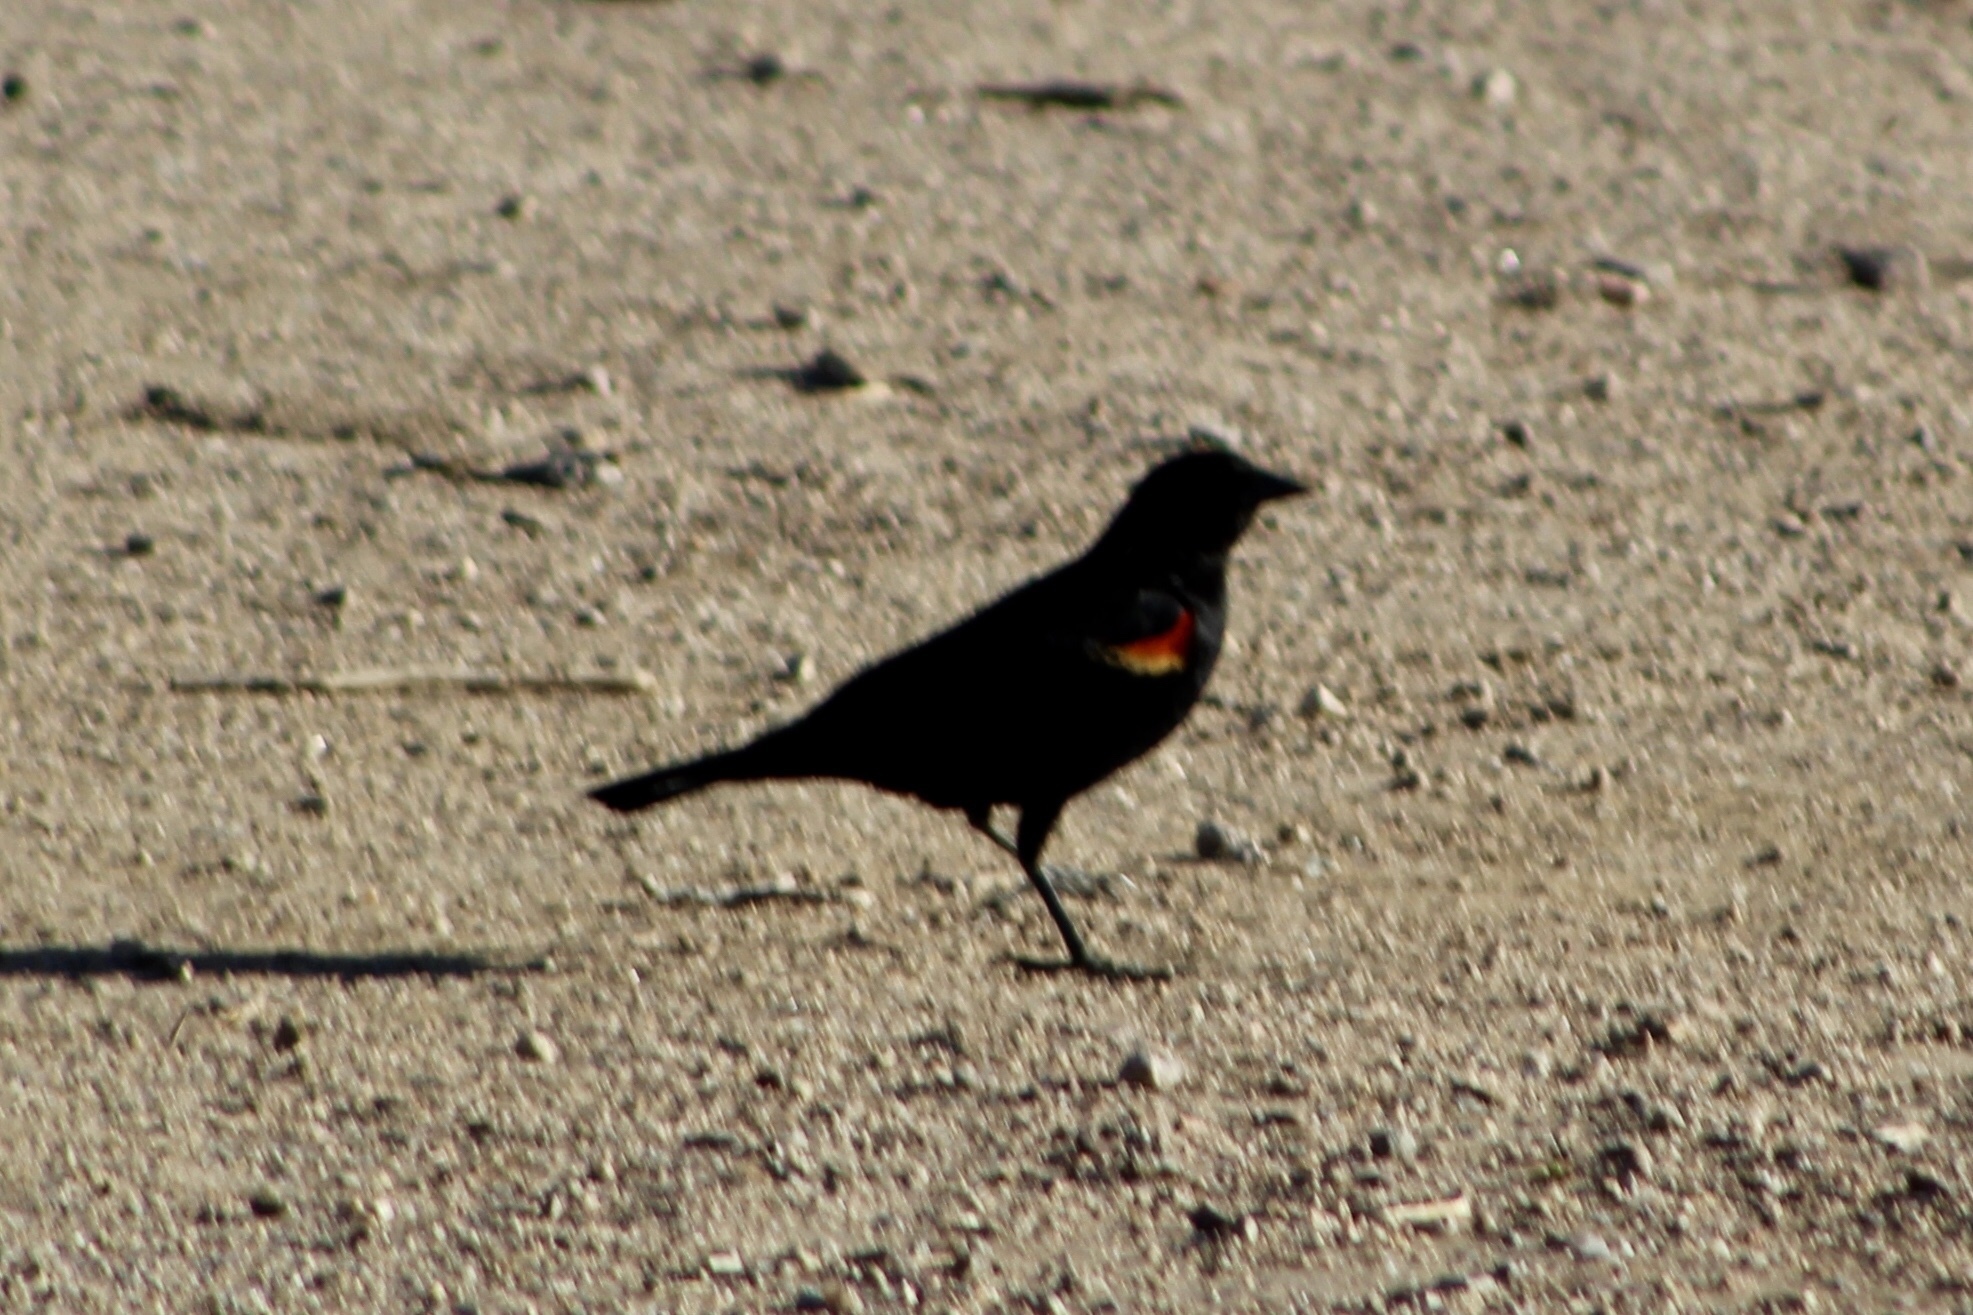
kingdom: Animalia
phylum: Chordata
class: Aves
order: Passeriformes
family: Icteridae
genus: Agelaius
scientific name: Agelaius phoeniceus
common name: Red-winged blackbird
